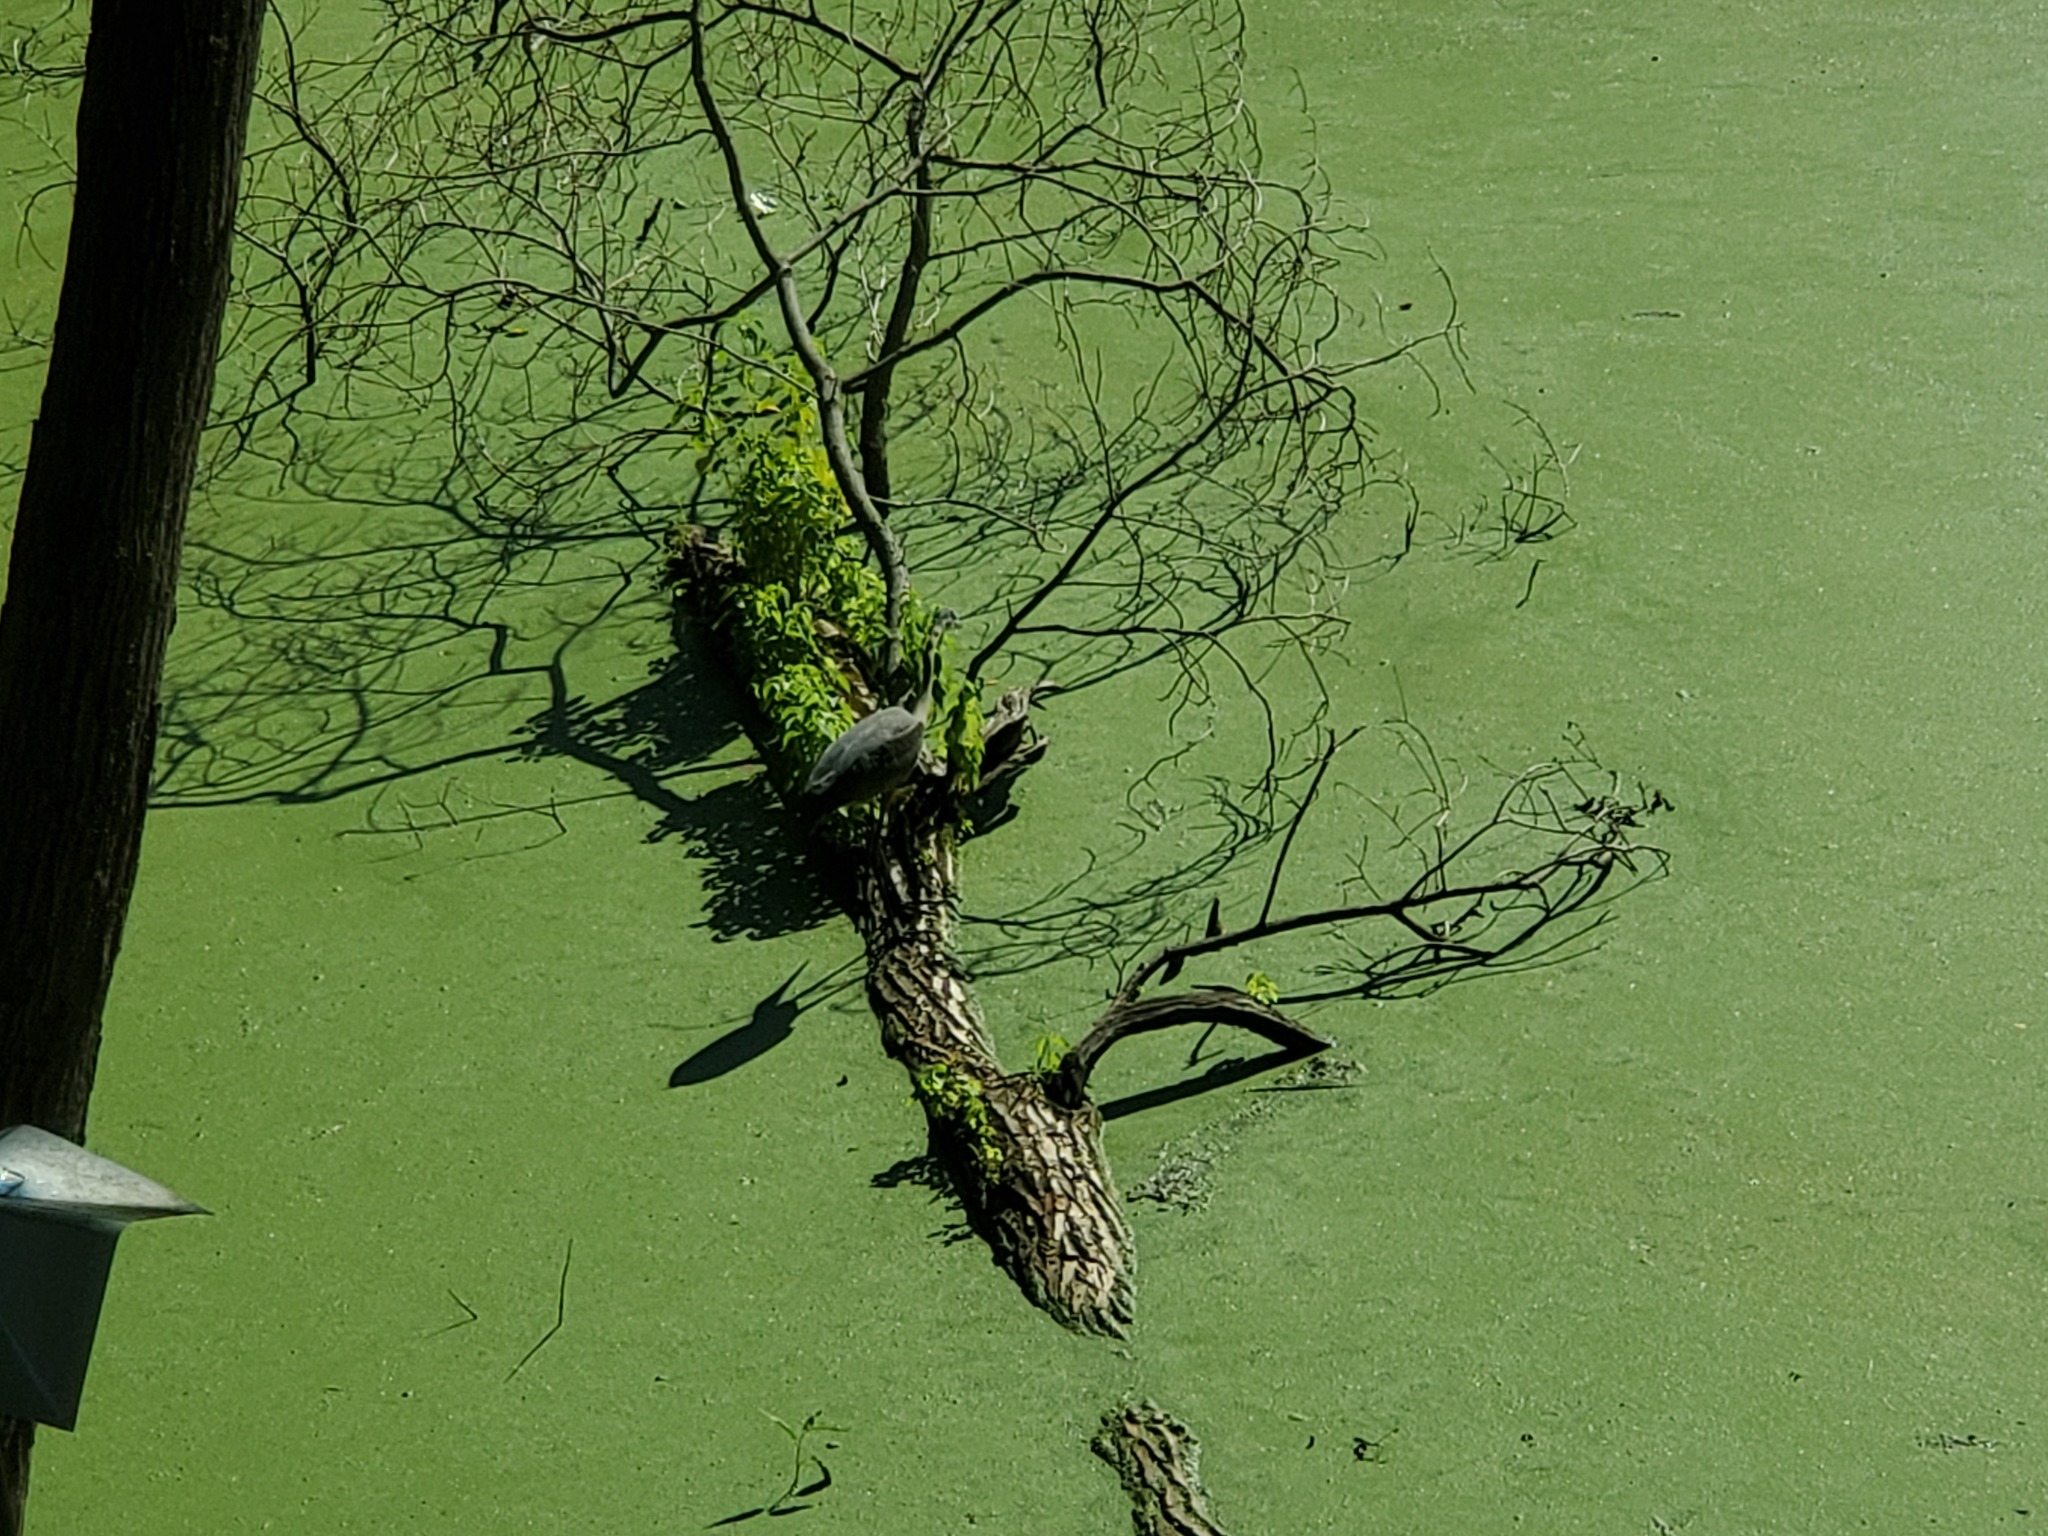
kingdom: Animalia
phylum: Chordata
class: Aves
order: Pelecaniformes
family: Ardeidae
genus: Ardea
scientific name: Ardea herodias
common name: Great blue heron
